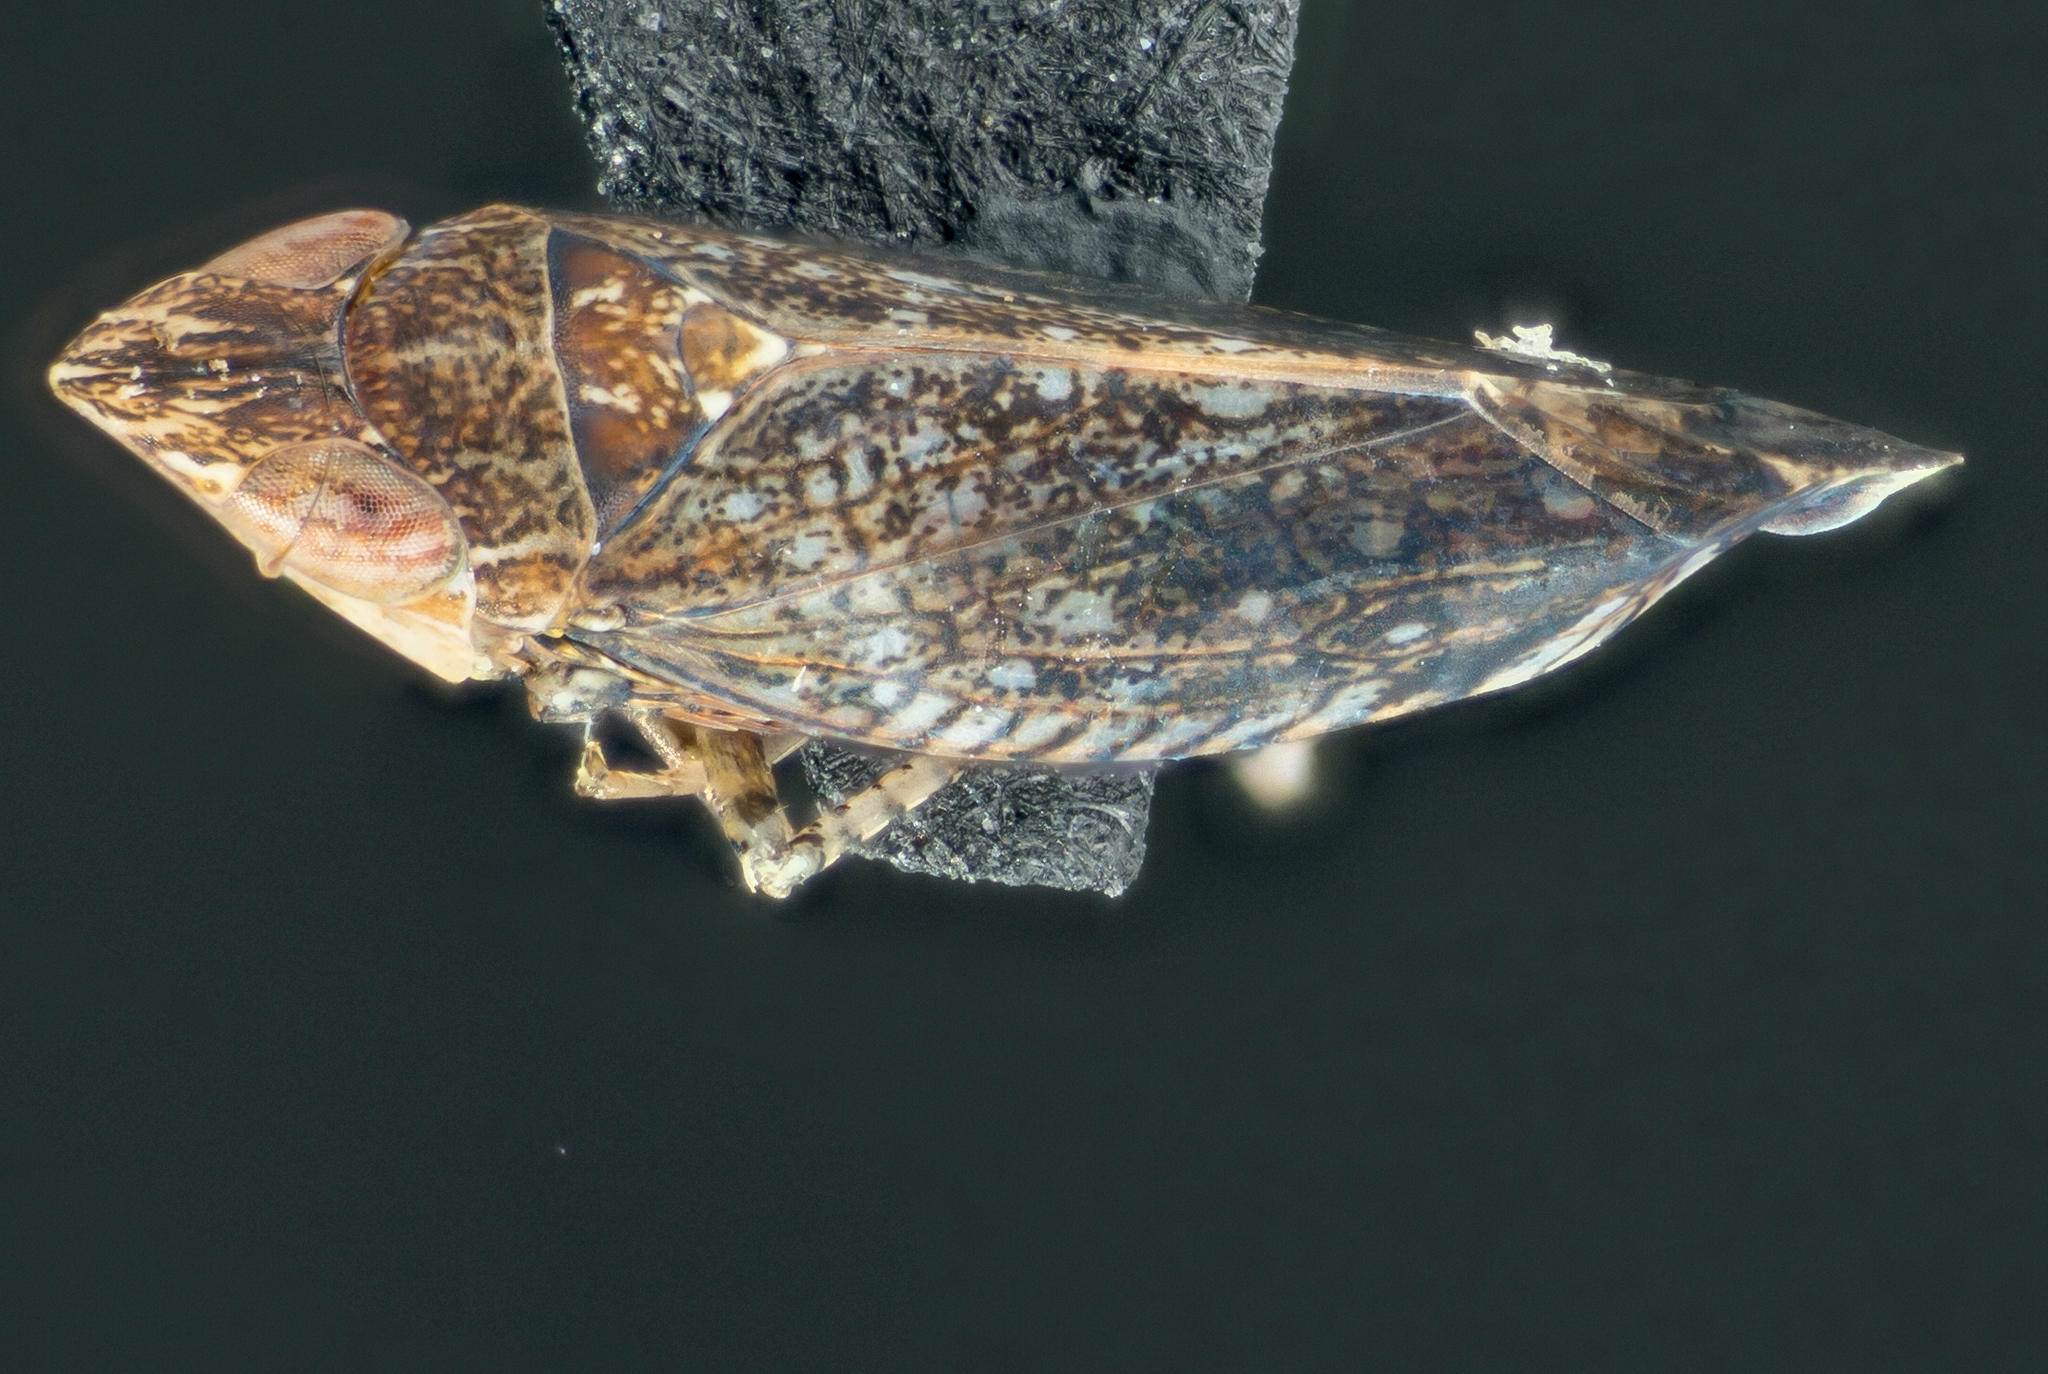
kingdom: Animalia
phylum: Arthropoda
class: Insecta
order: Hemiptera
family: Cicadellidae
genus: Scaphytopius
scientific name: Scaphytopius loricatus
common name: Yellowfaced leafhopper
